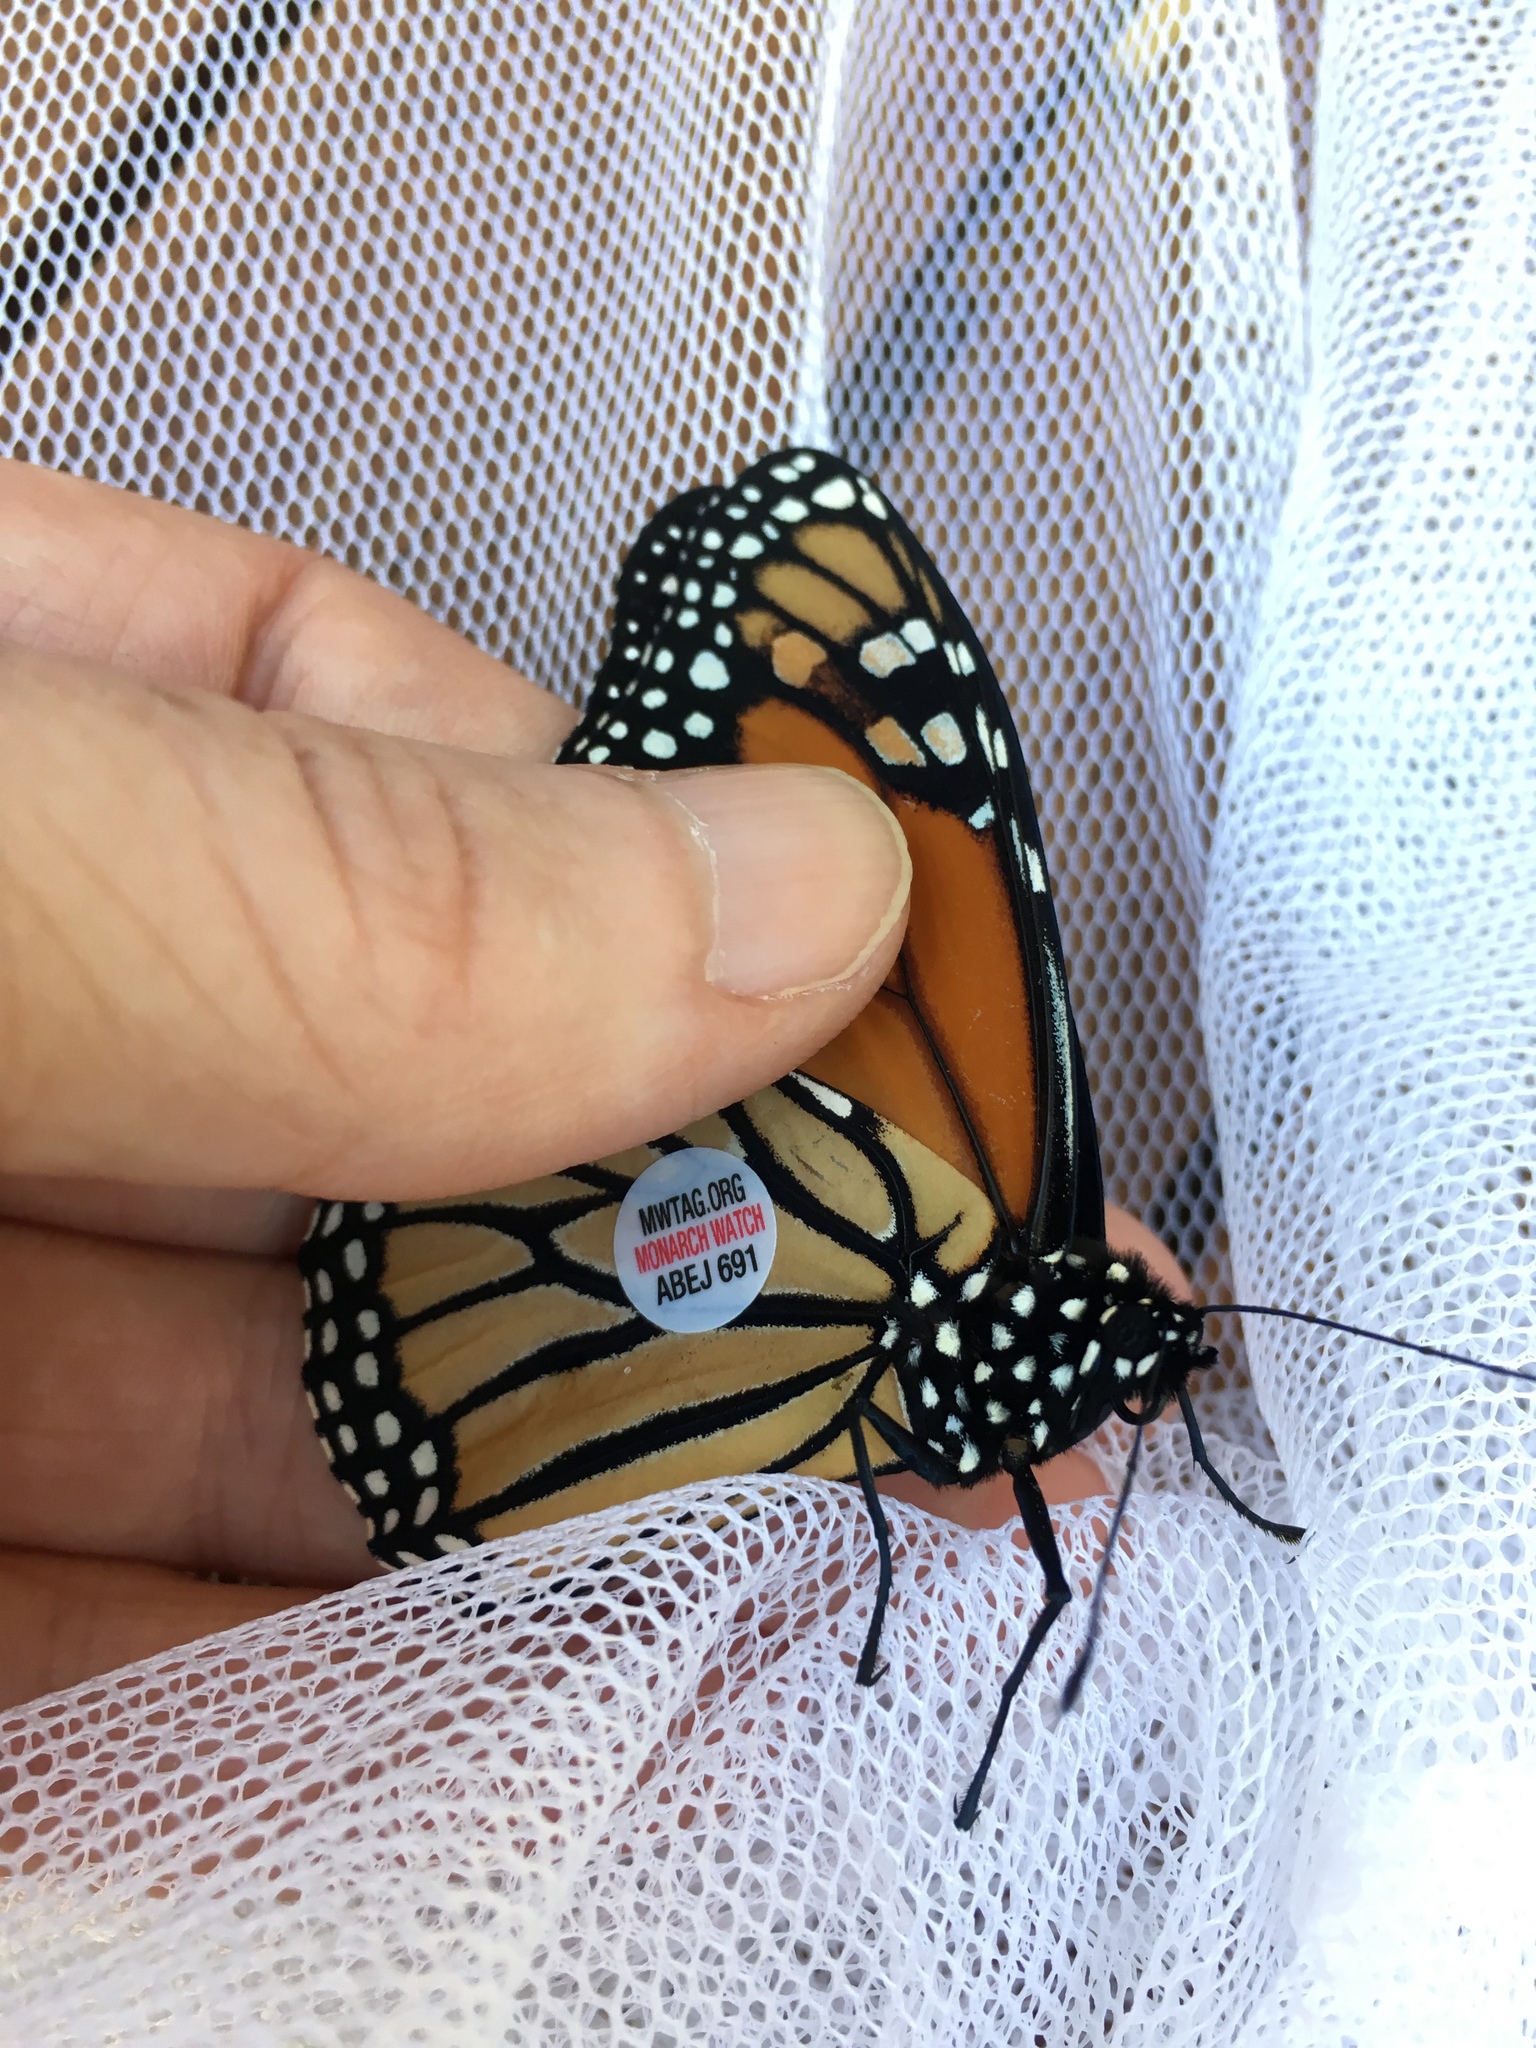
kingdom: Animalia
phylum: Arthropoda
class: Insecta
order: Lepidoptera
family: Nymphalidae
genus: Danaus
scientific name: Danaus plexippus
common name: Monarch
